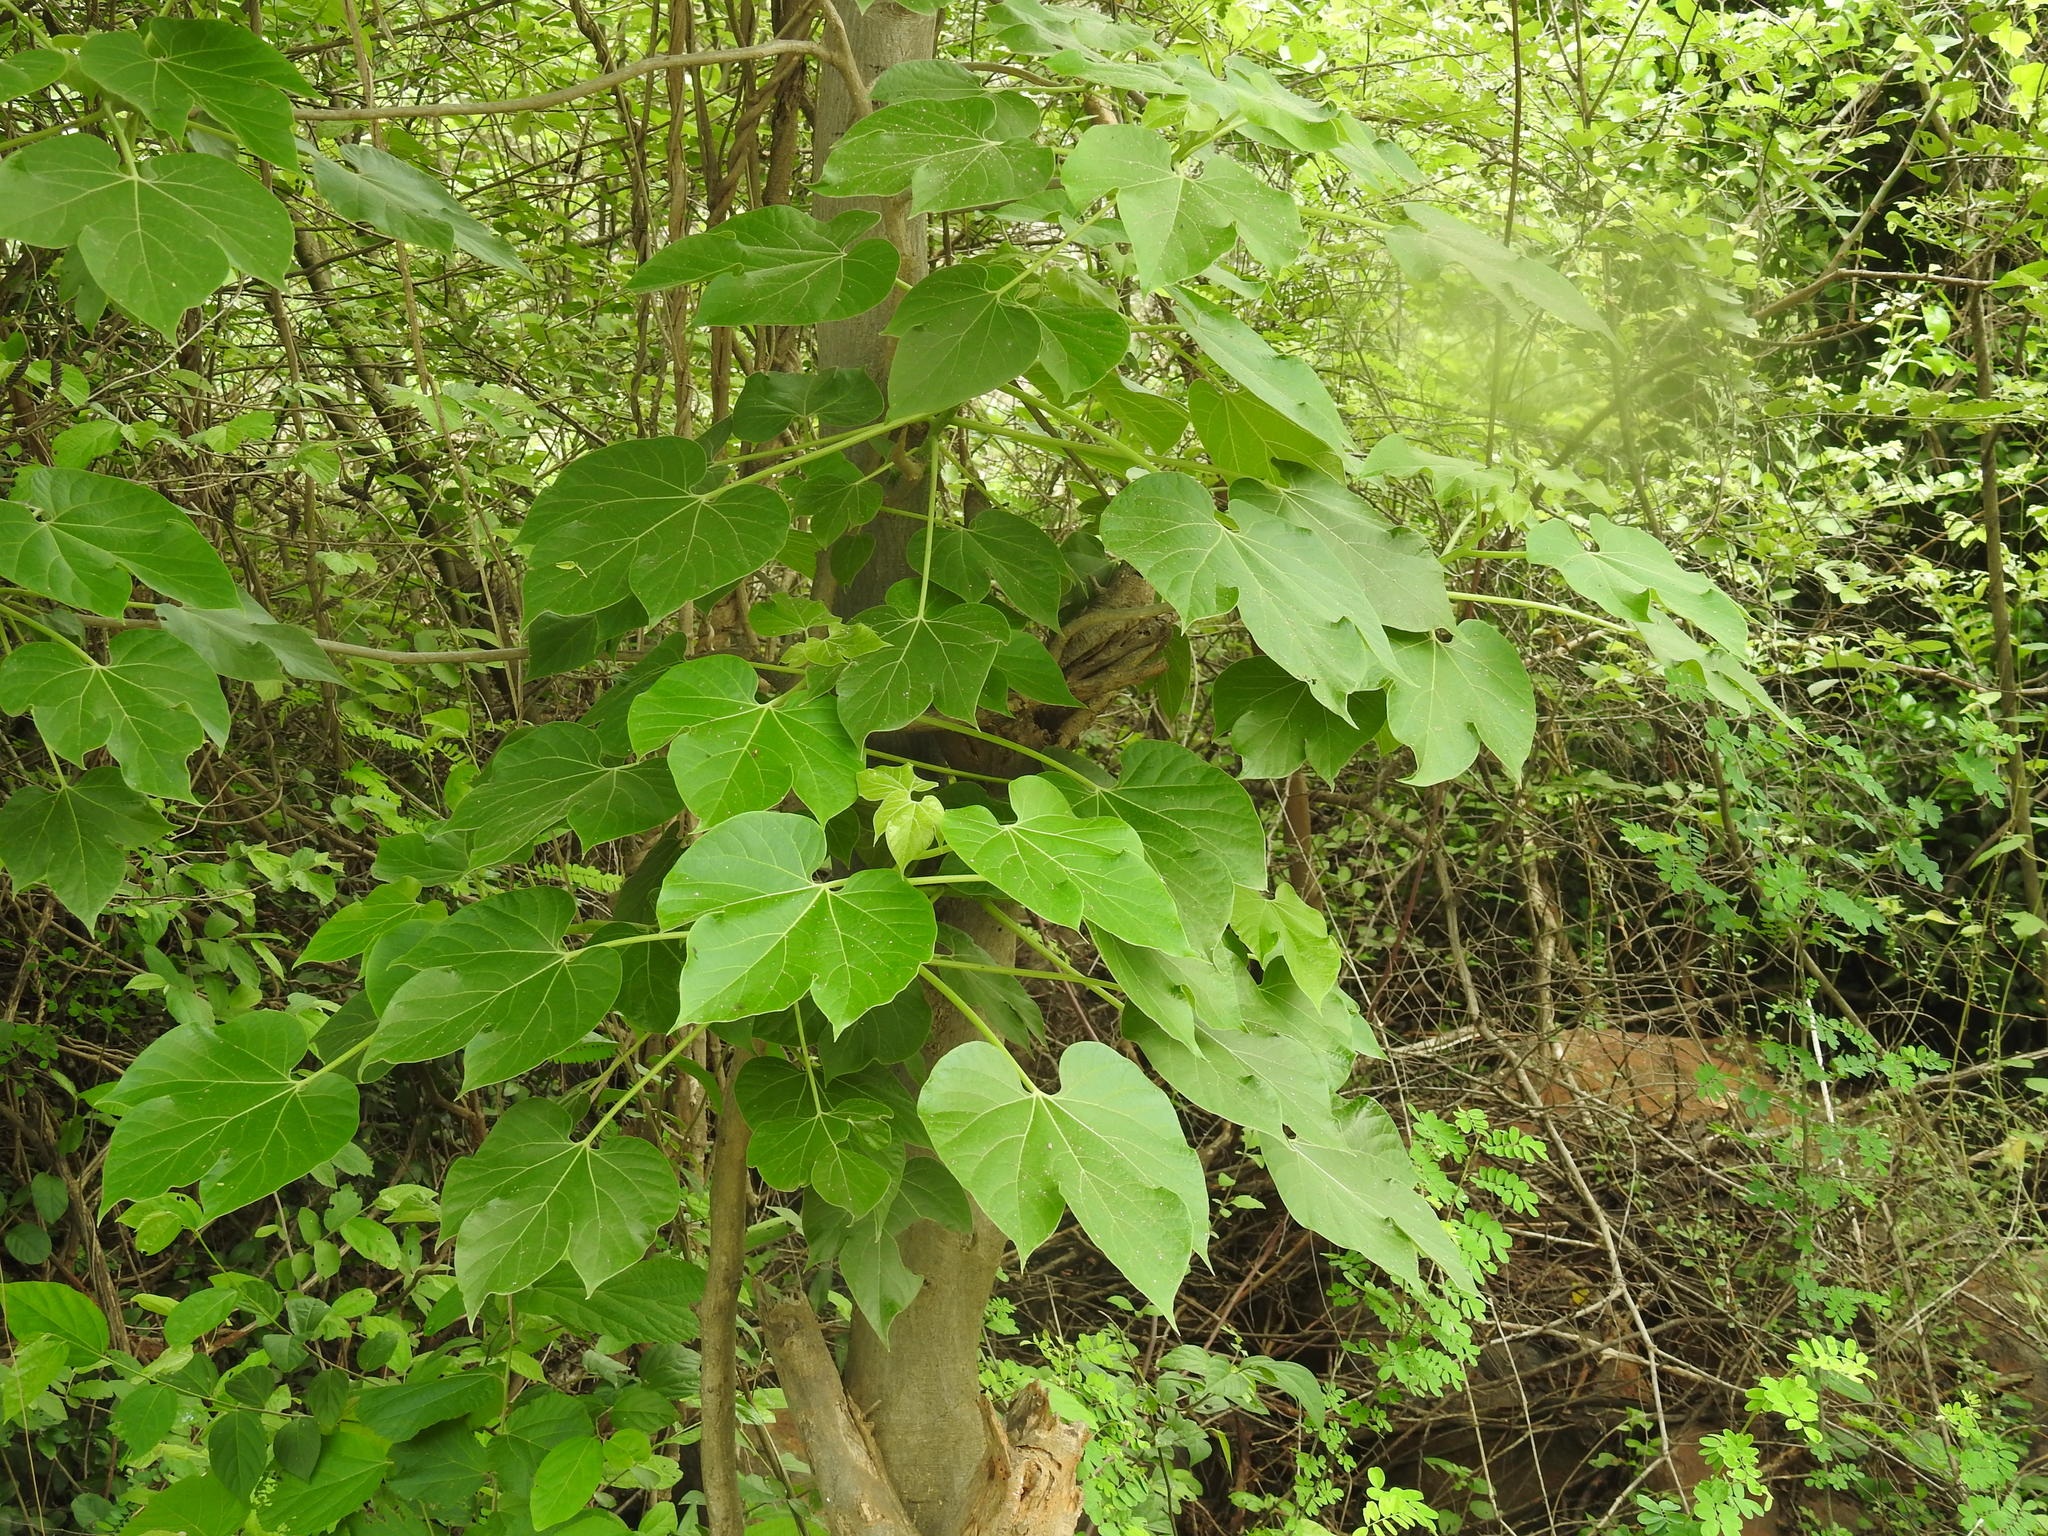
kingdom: Plantae
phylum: Tracheophyta
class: Magnoliopsida
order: Malpighiales
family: Euphorbiaceae
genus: Jatropha
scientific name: Jatropha curcas
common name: Barbados nut
